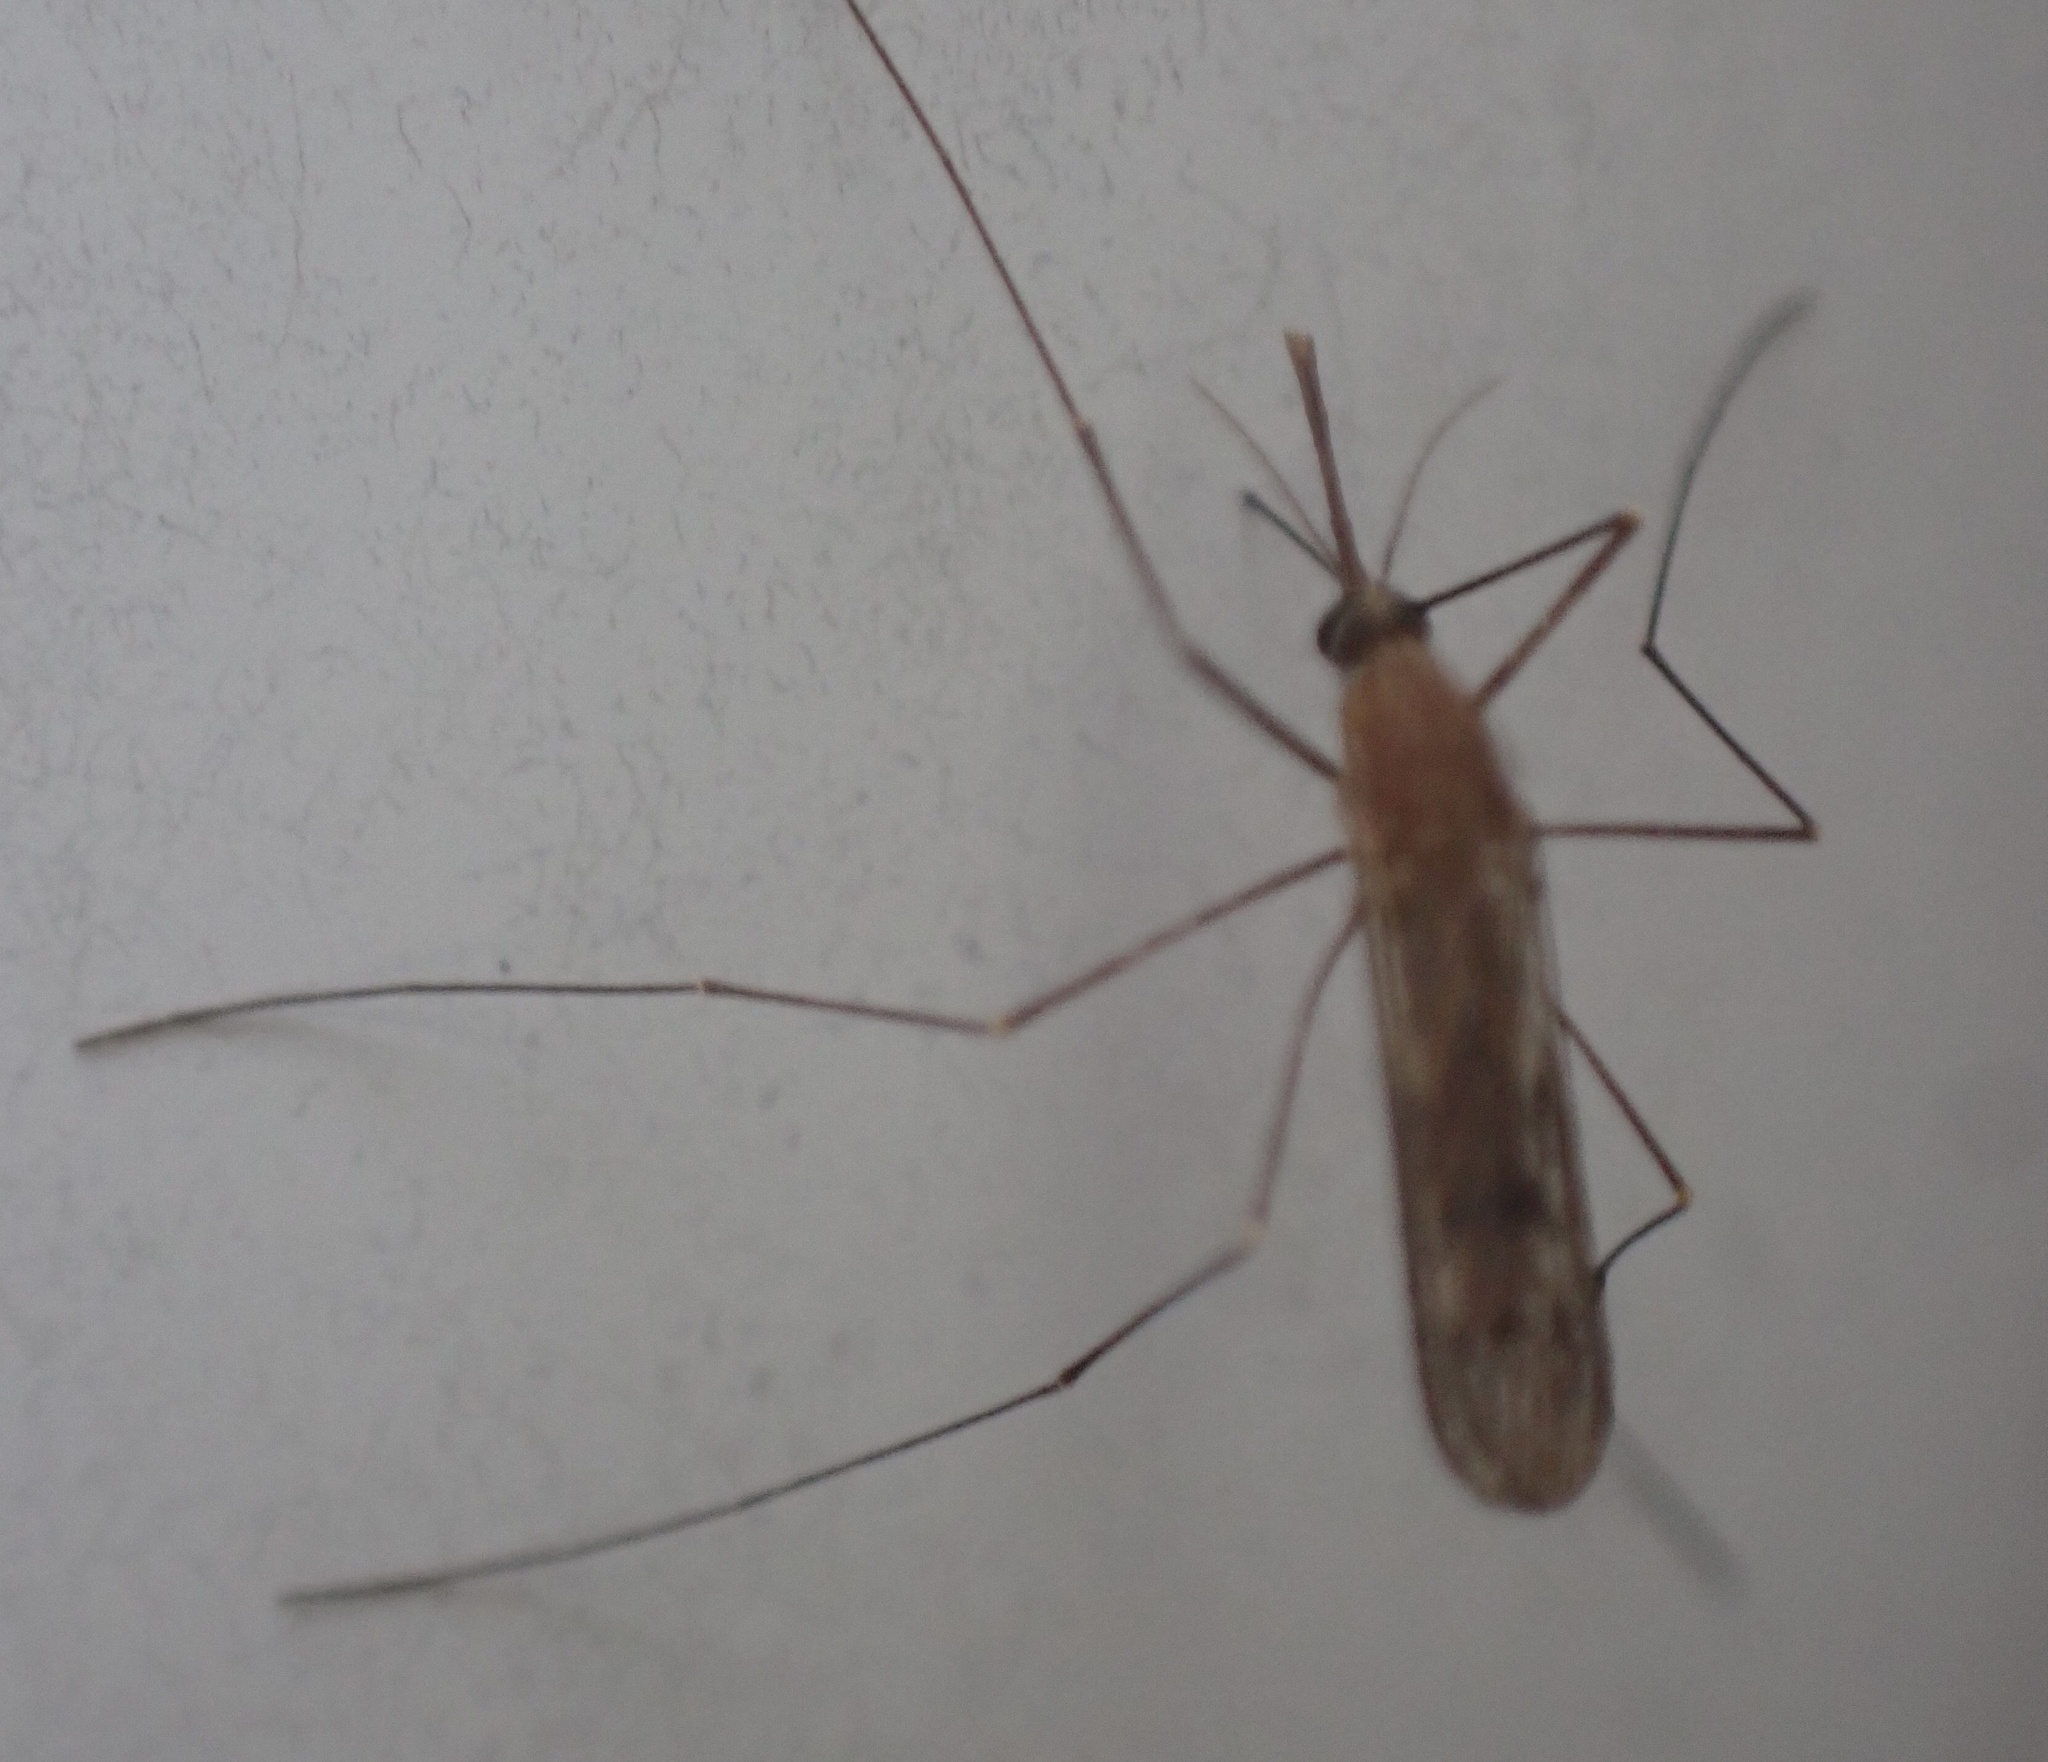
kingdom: Animalia
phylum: Arthropoda
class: Insecta
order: Diptera
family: Culicidae
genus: Anopheles
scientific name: Anopheles
